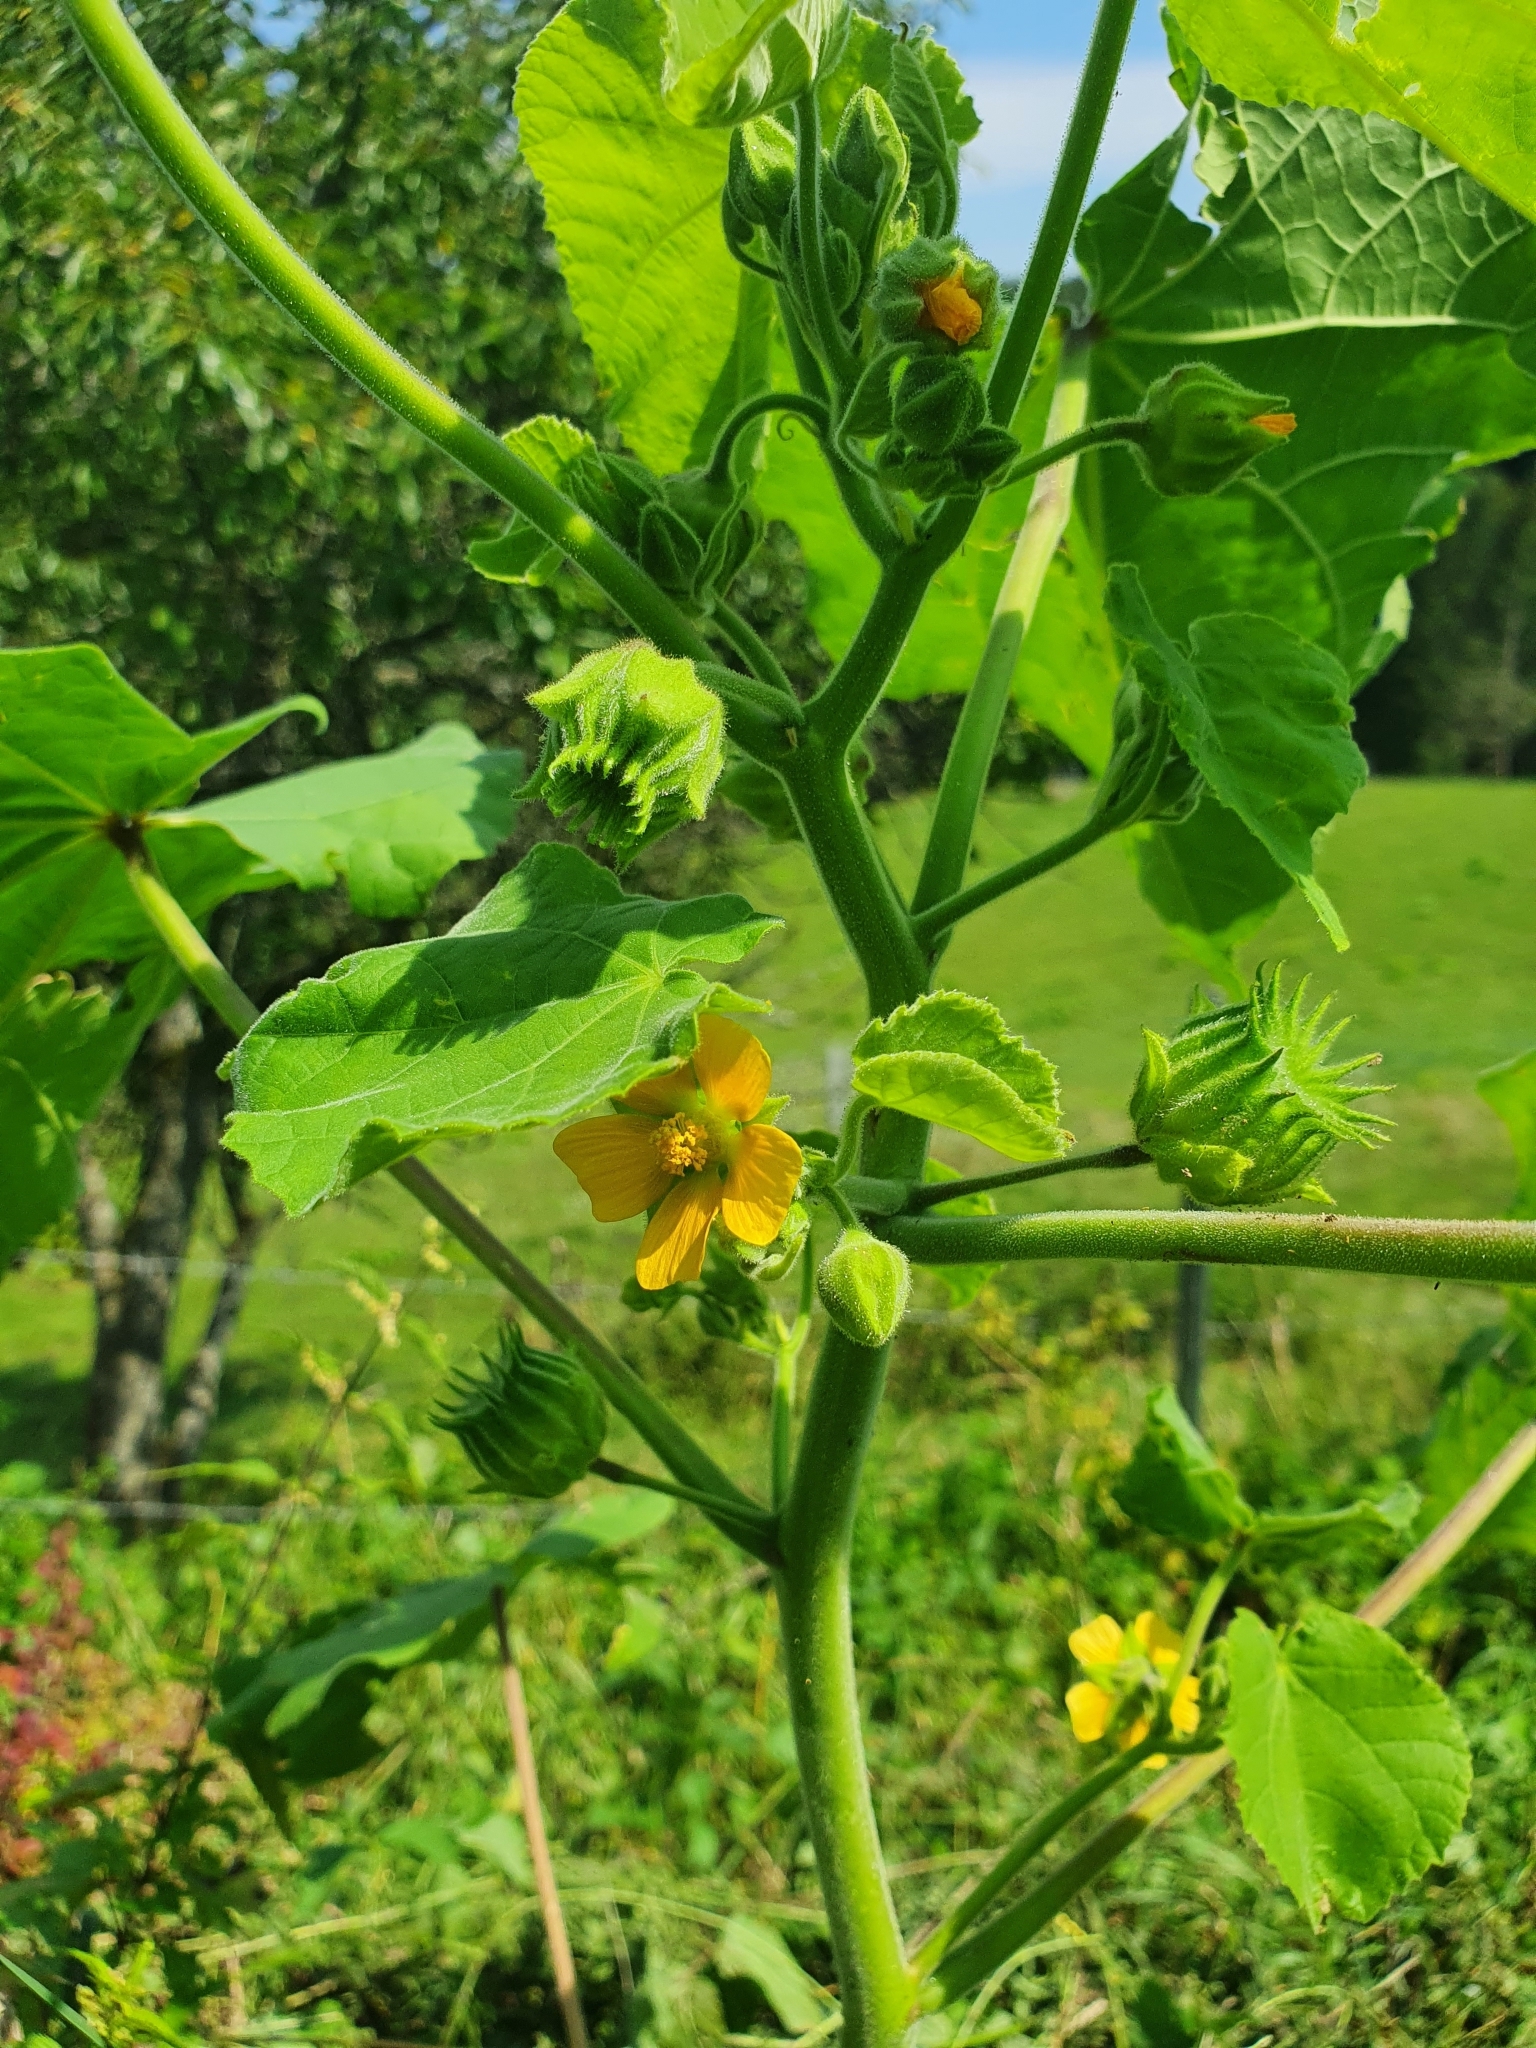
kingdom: Plantae
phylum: Tracheophyta
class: Magnoliopsida
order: Malvales
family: Malvaceae
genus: Abutilon
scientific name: Abutilon theophrasti
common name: Velvetleaf
